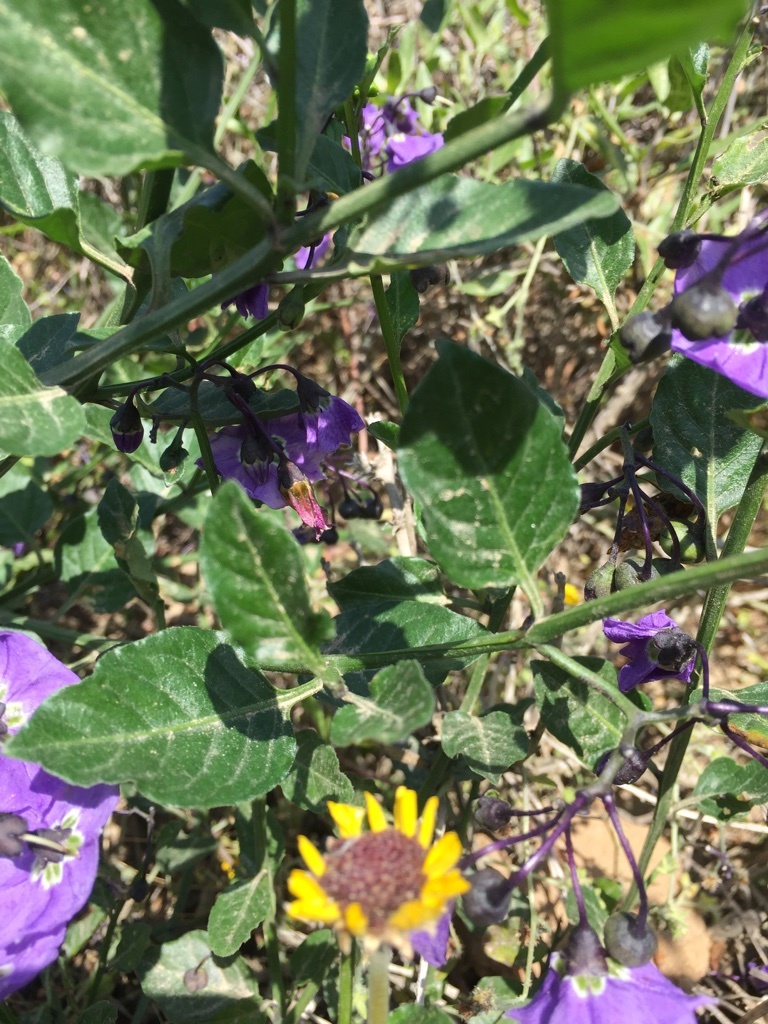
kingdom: Plantae
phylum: Tracheophyta
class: Magnoliopsida
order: Solanales
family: Solanaceae
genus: Solanum
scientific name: Solanum umbelliferum
